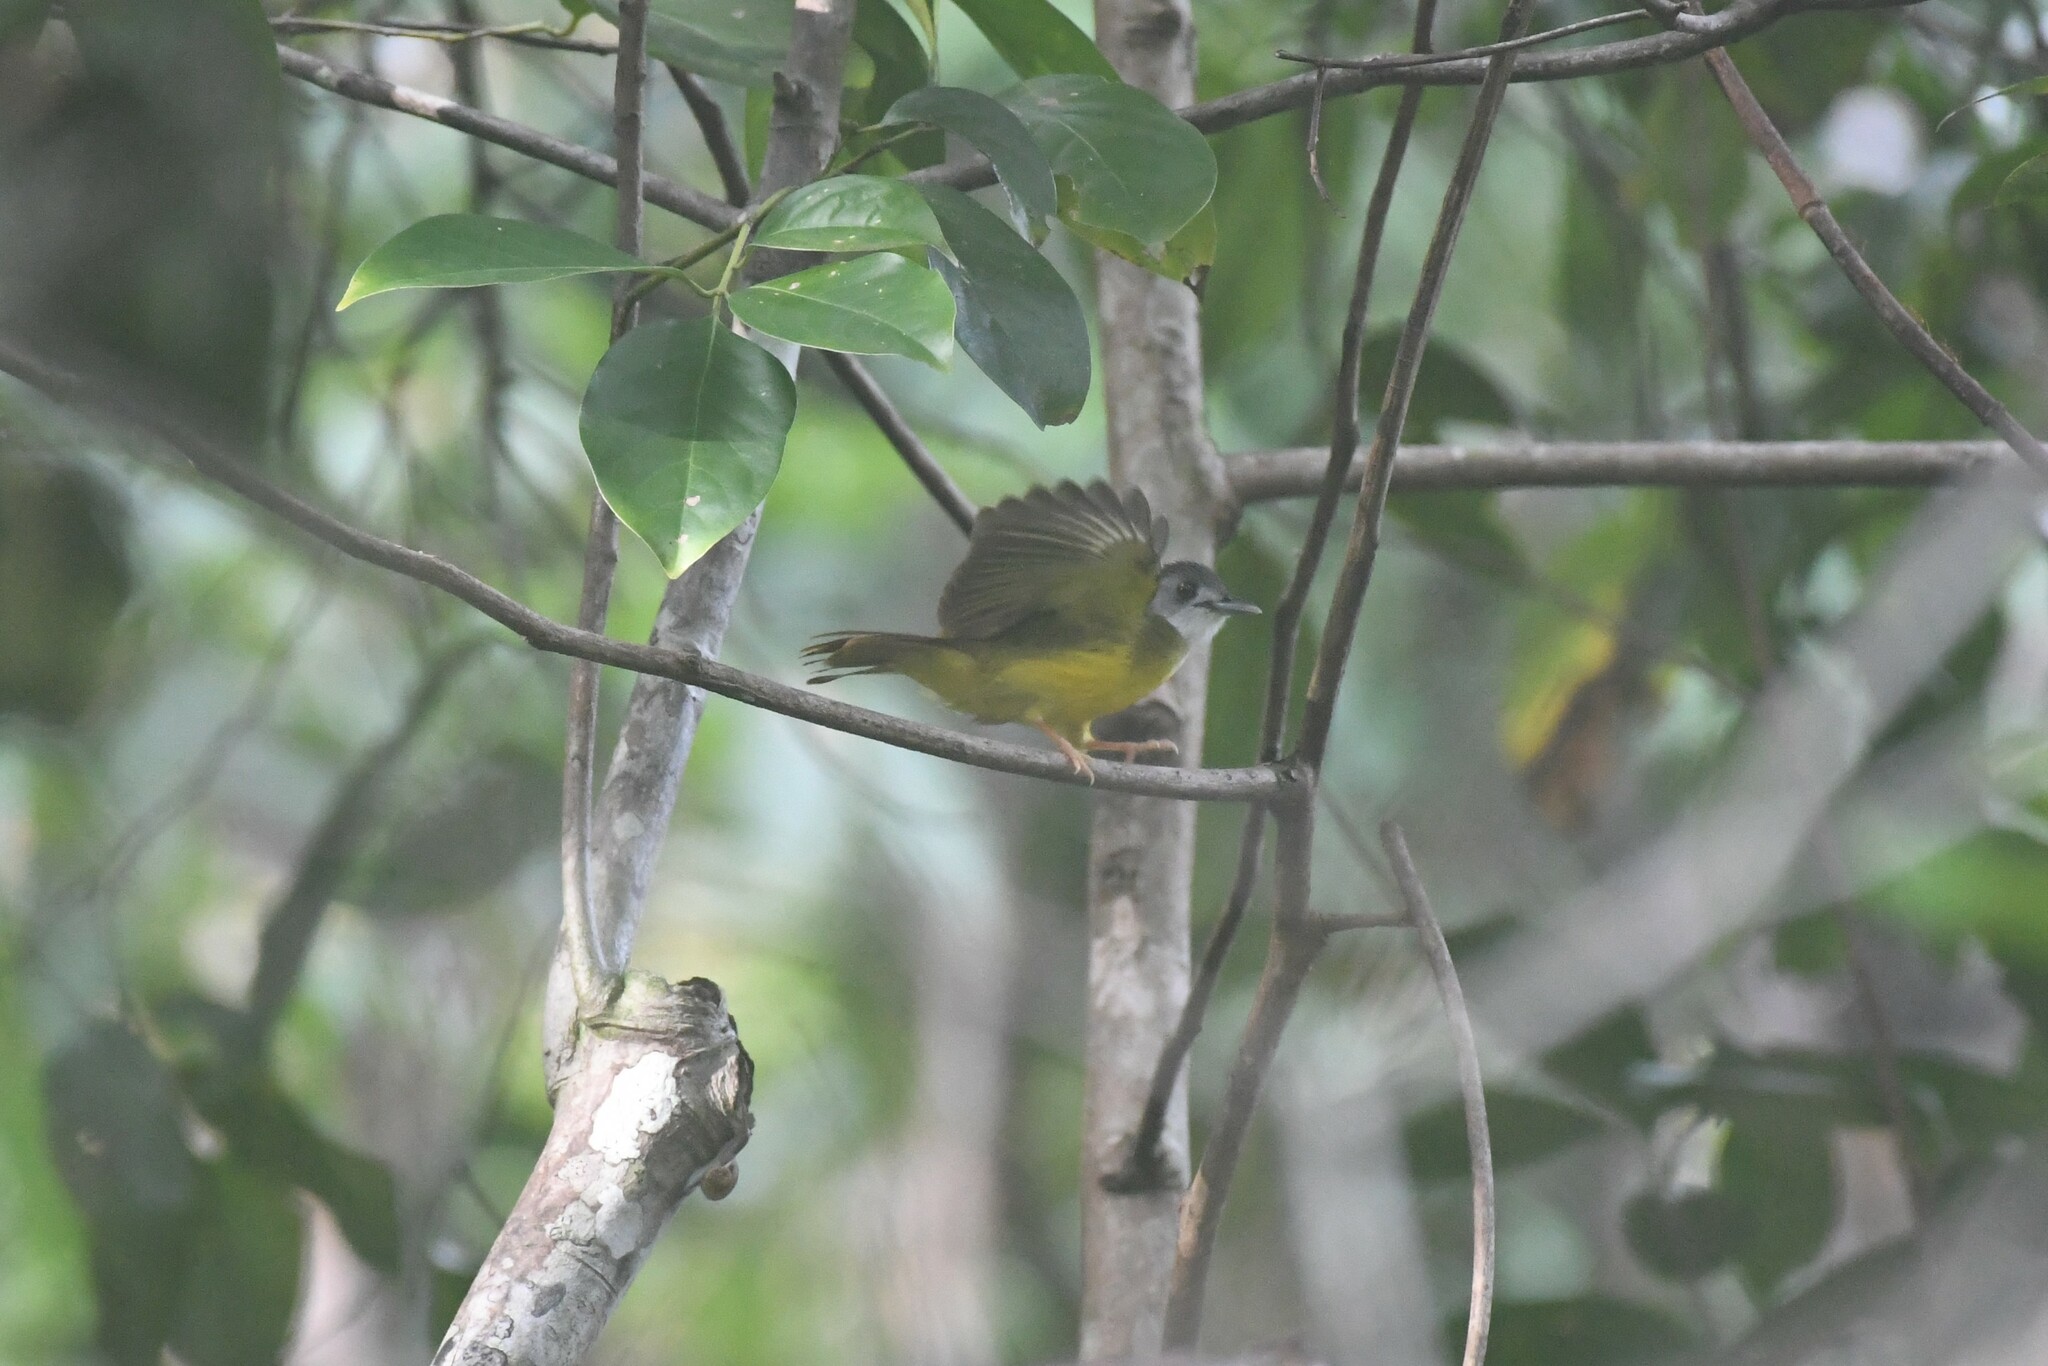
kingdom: Animalia
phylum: Chordata
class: Aves
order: Passeriformes
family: Pycnonotidae
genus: Alophoixus
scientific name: Alophoixus phaeocephalus
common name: Yellow-bellied bulbul
